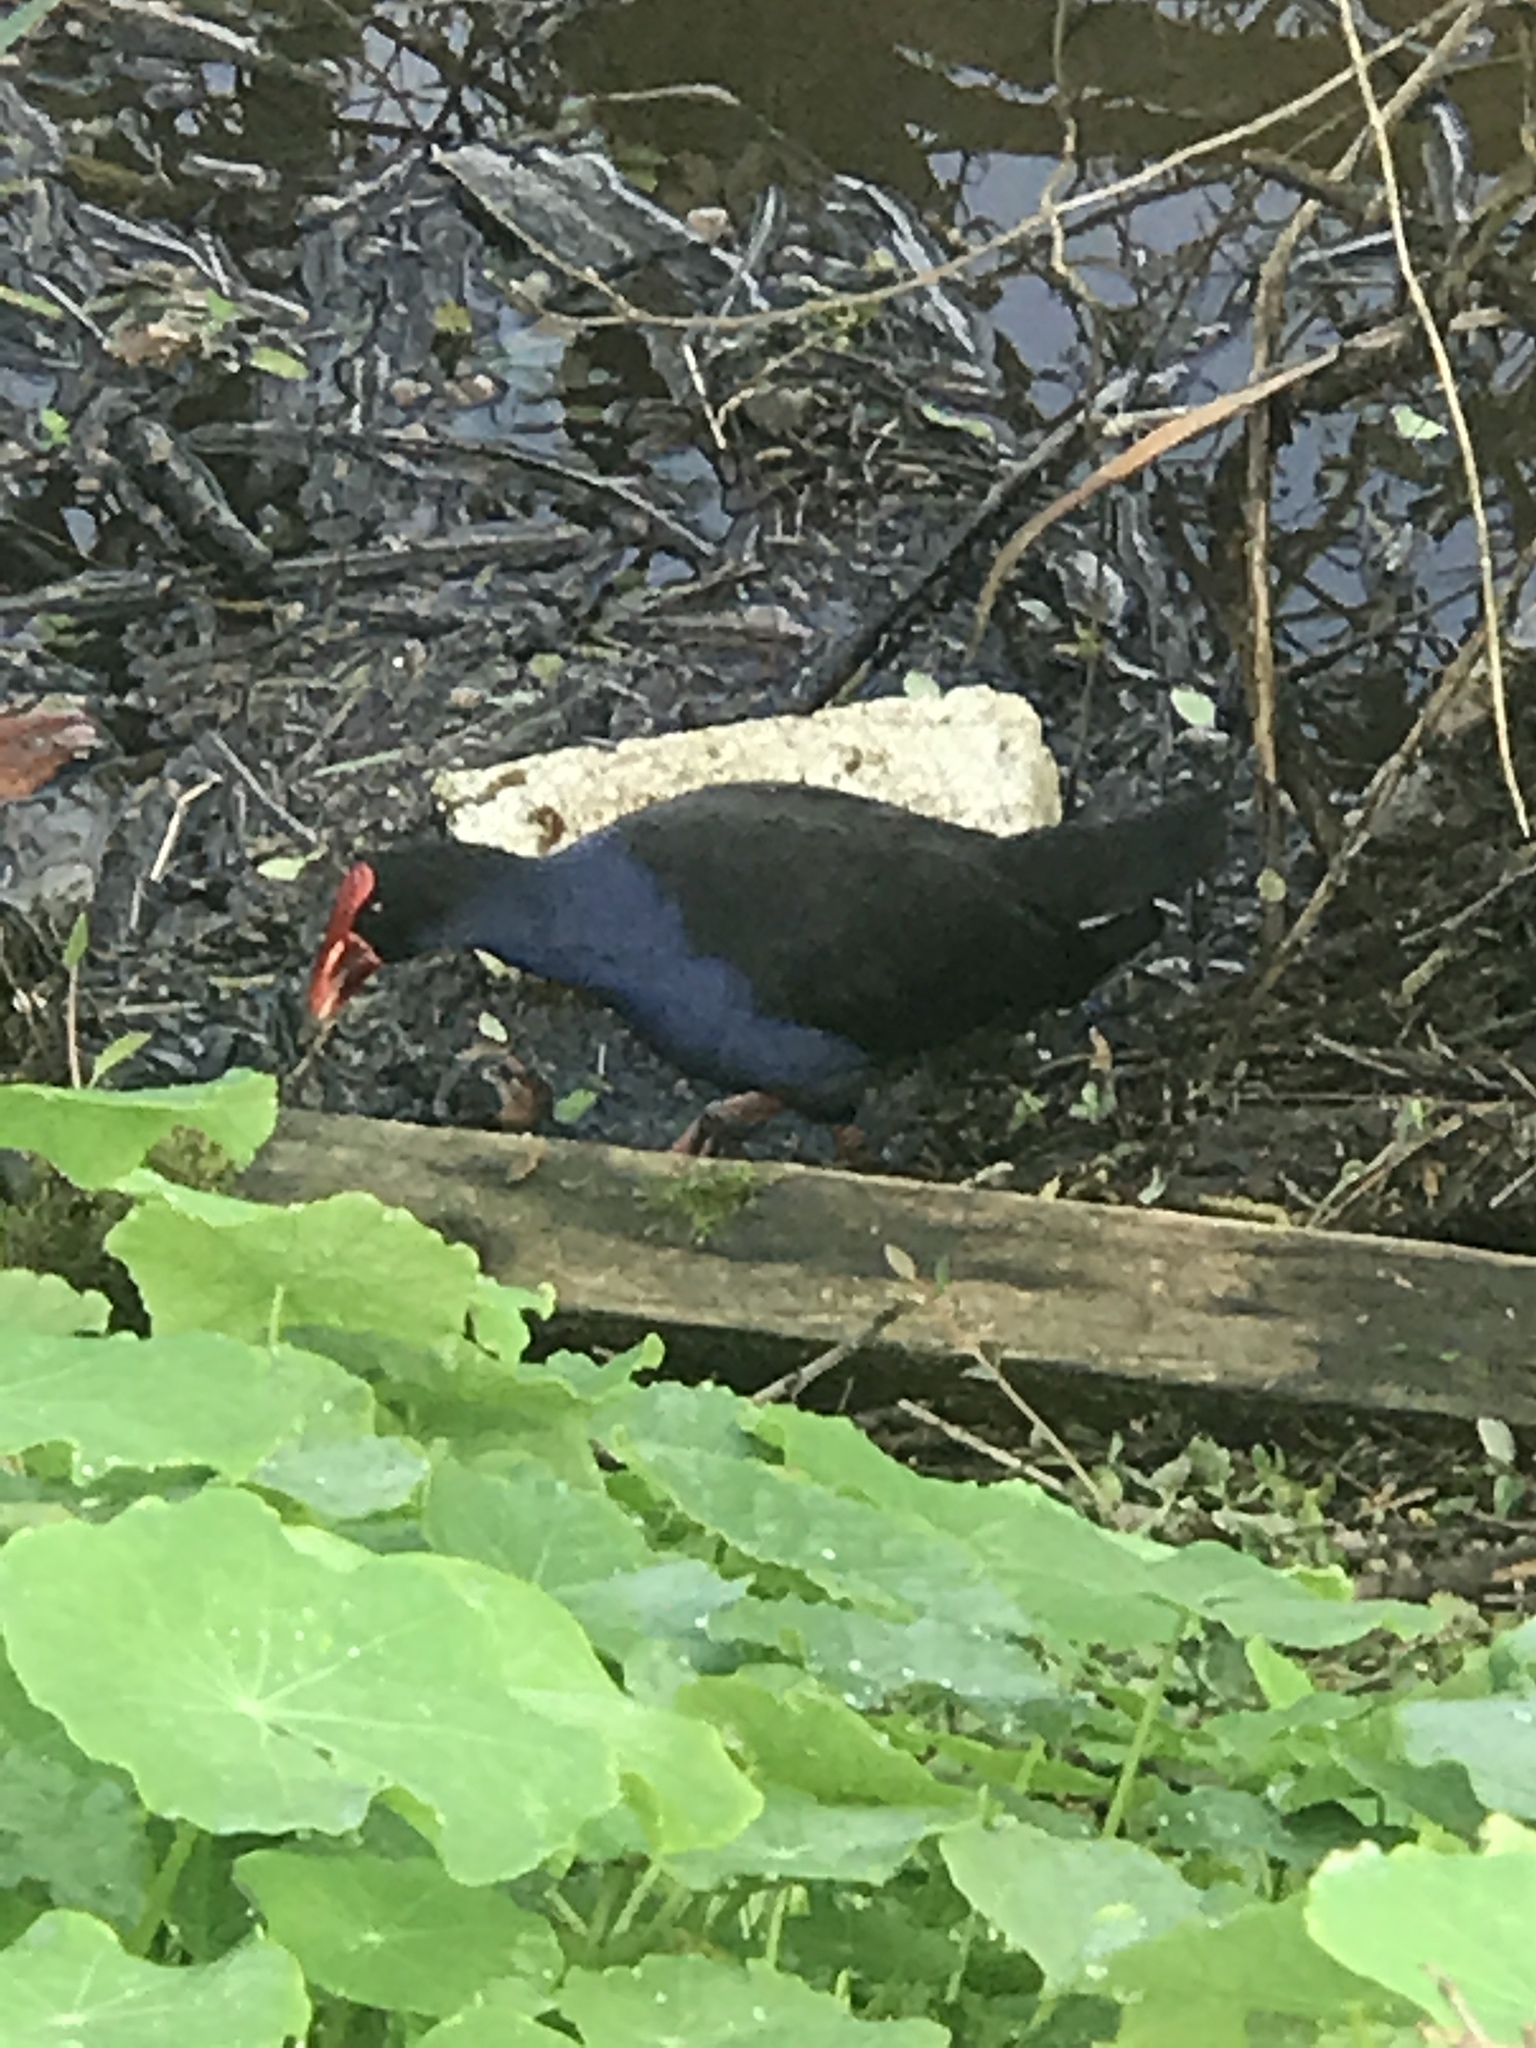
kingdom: Animalia
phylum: Chordata
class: Aves
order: Gruiformes
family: Rallidae
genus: Porphyrio
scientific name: Porphyrio melanotus
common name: Australasian swamphen
